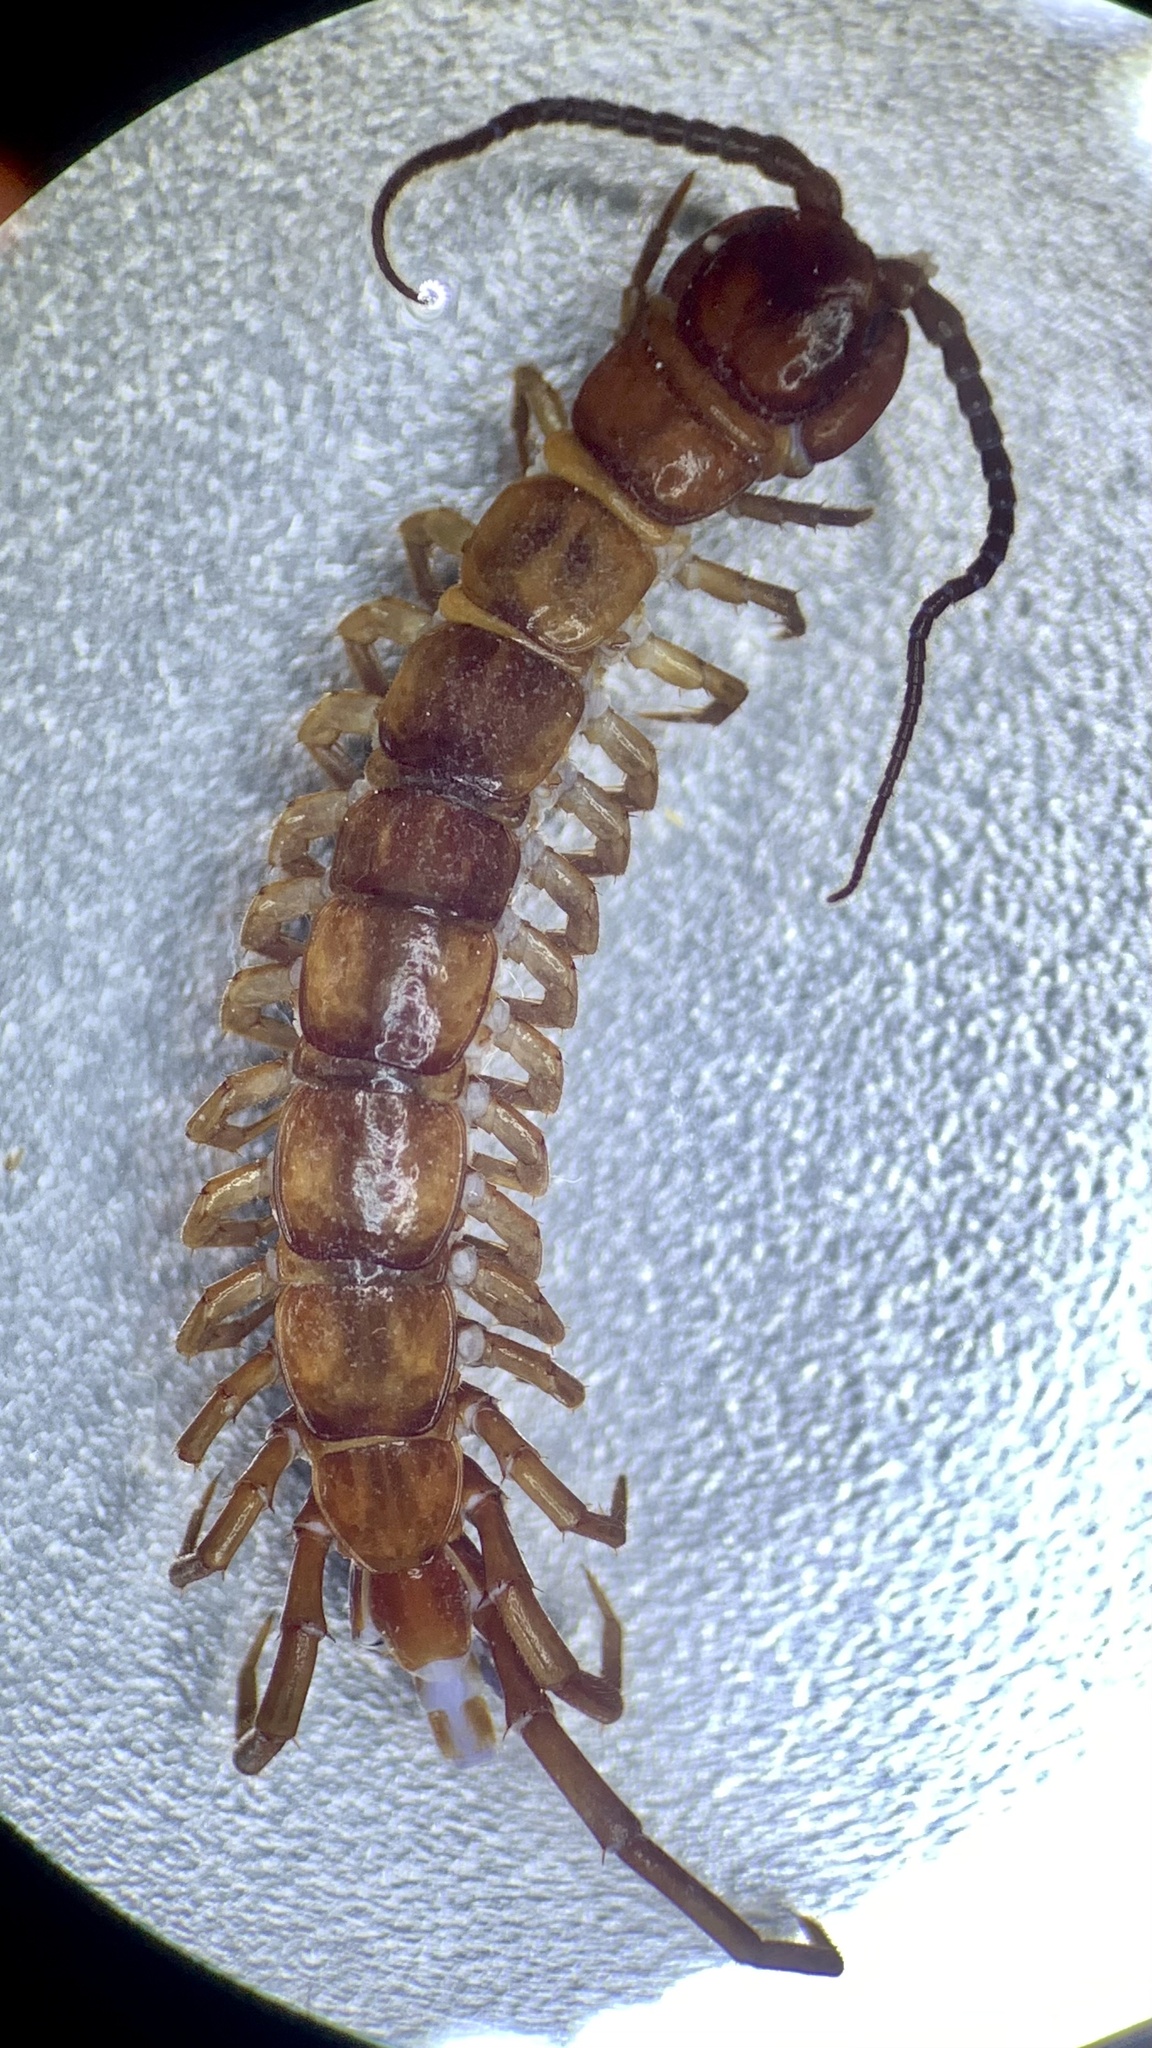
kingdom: Animalia
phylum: Arthropoda
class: Chilopoda
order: Lithobiomorpha
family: Lithobiidae
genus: Lithobius
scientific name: Lithobius pilicornis
